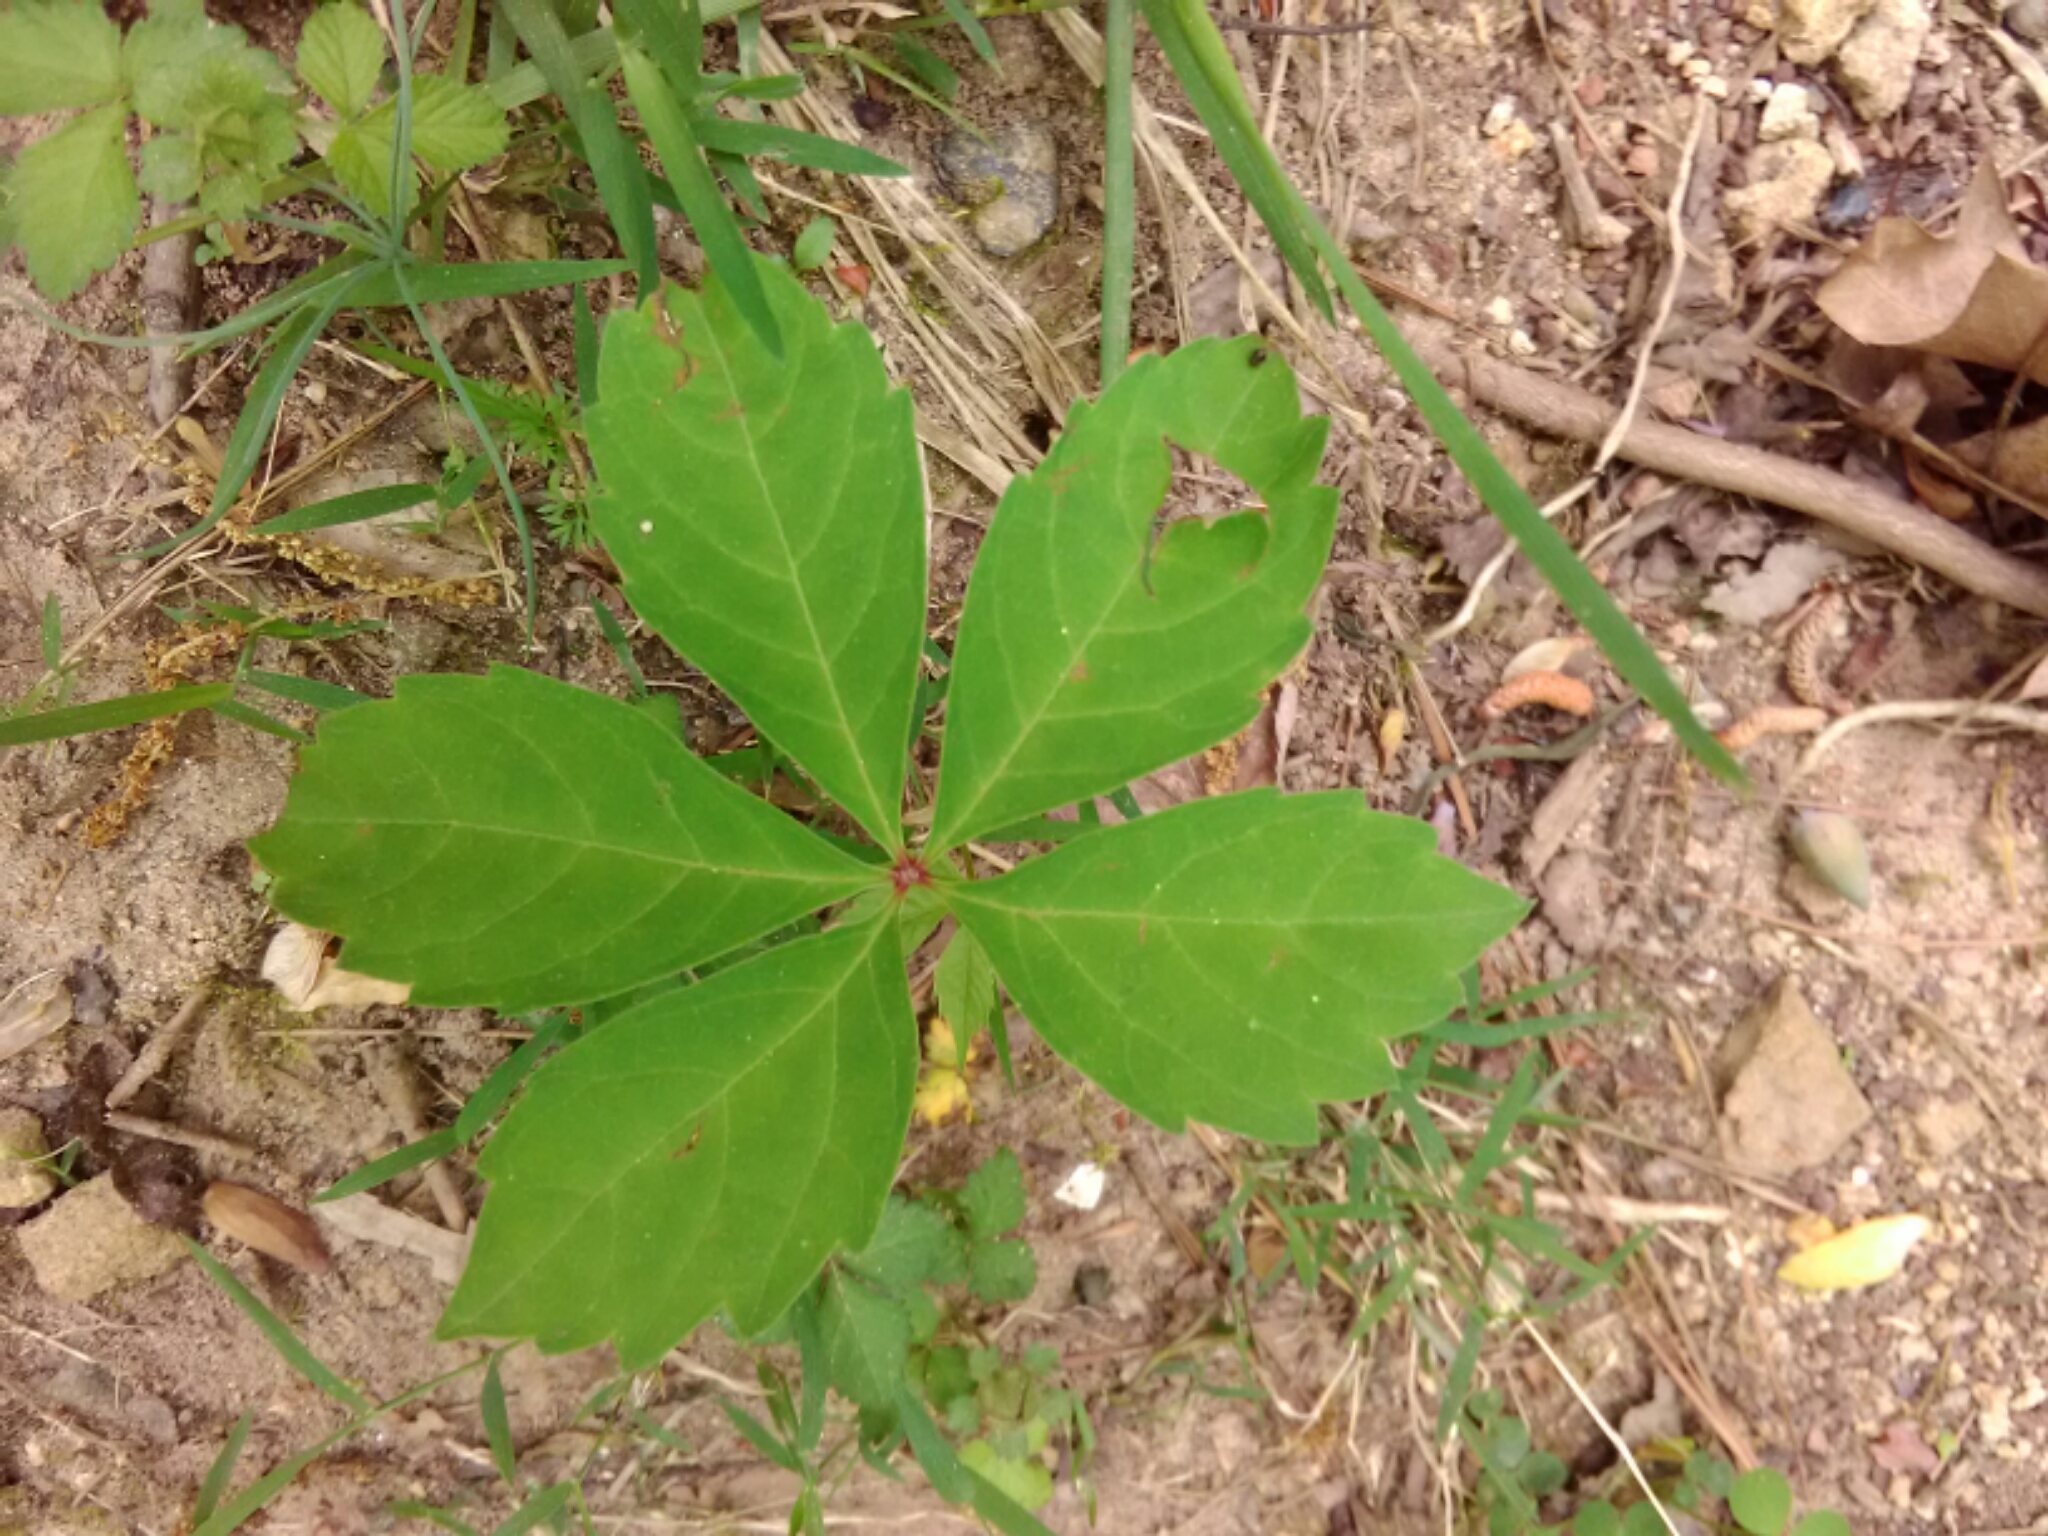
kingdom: Plantae
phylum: Tracheophyta
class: Magnoliopsida
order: Vitales
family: Vitaceae
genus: Parthenocissus
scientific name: Parthenocissus quinquefolia
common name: Virginia-creeper
